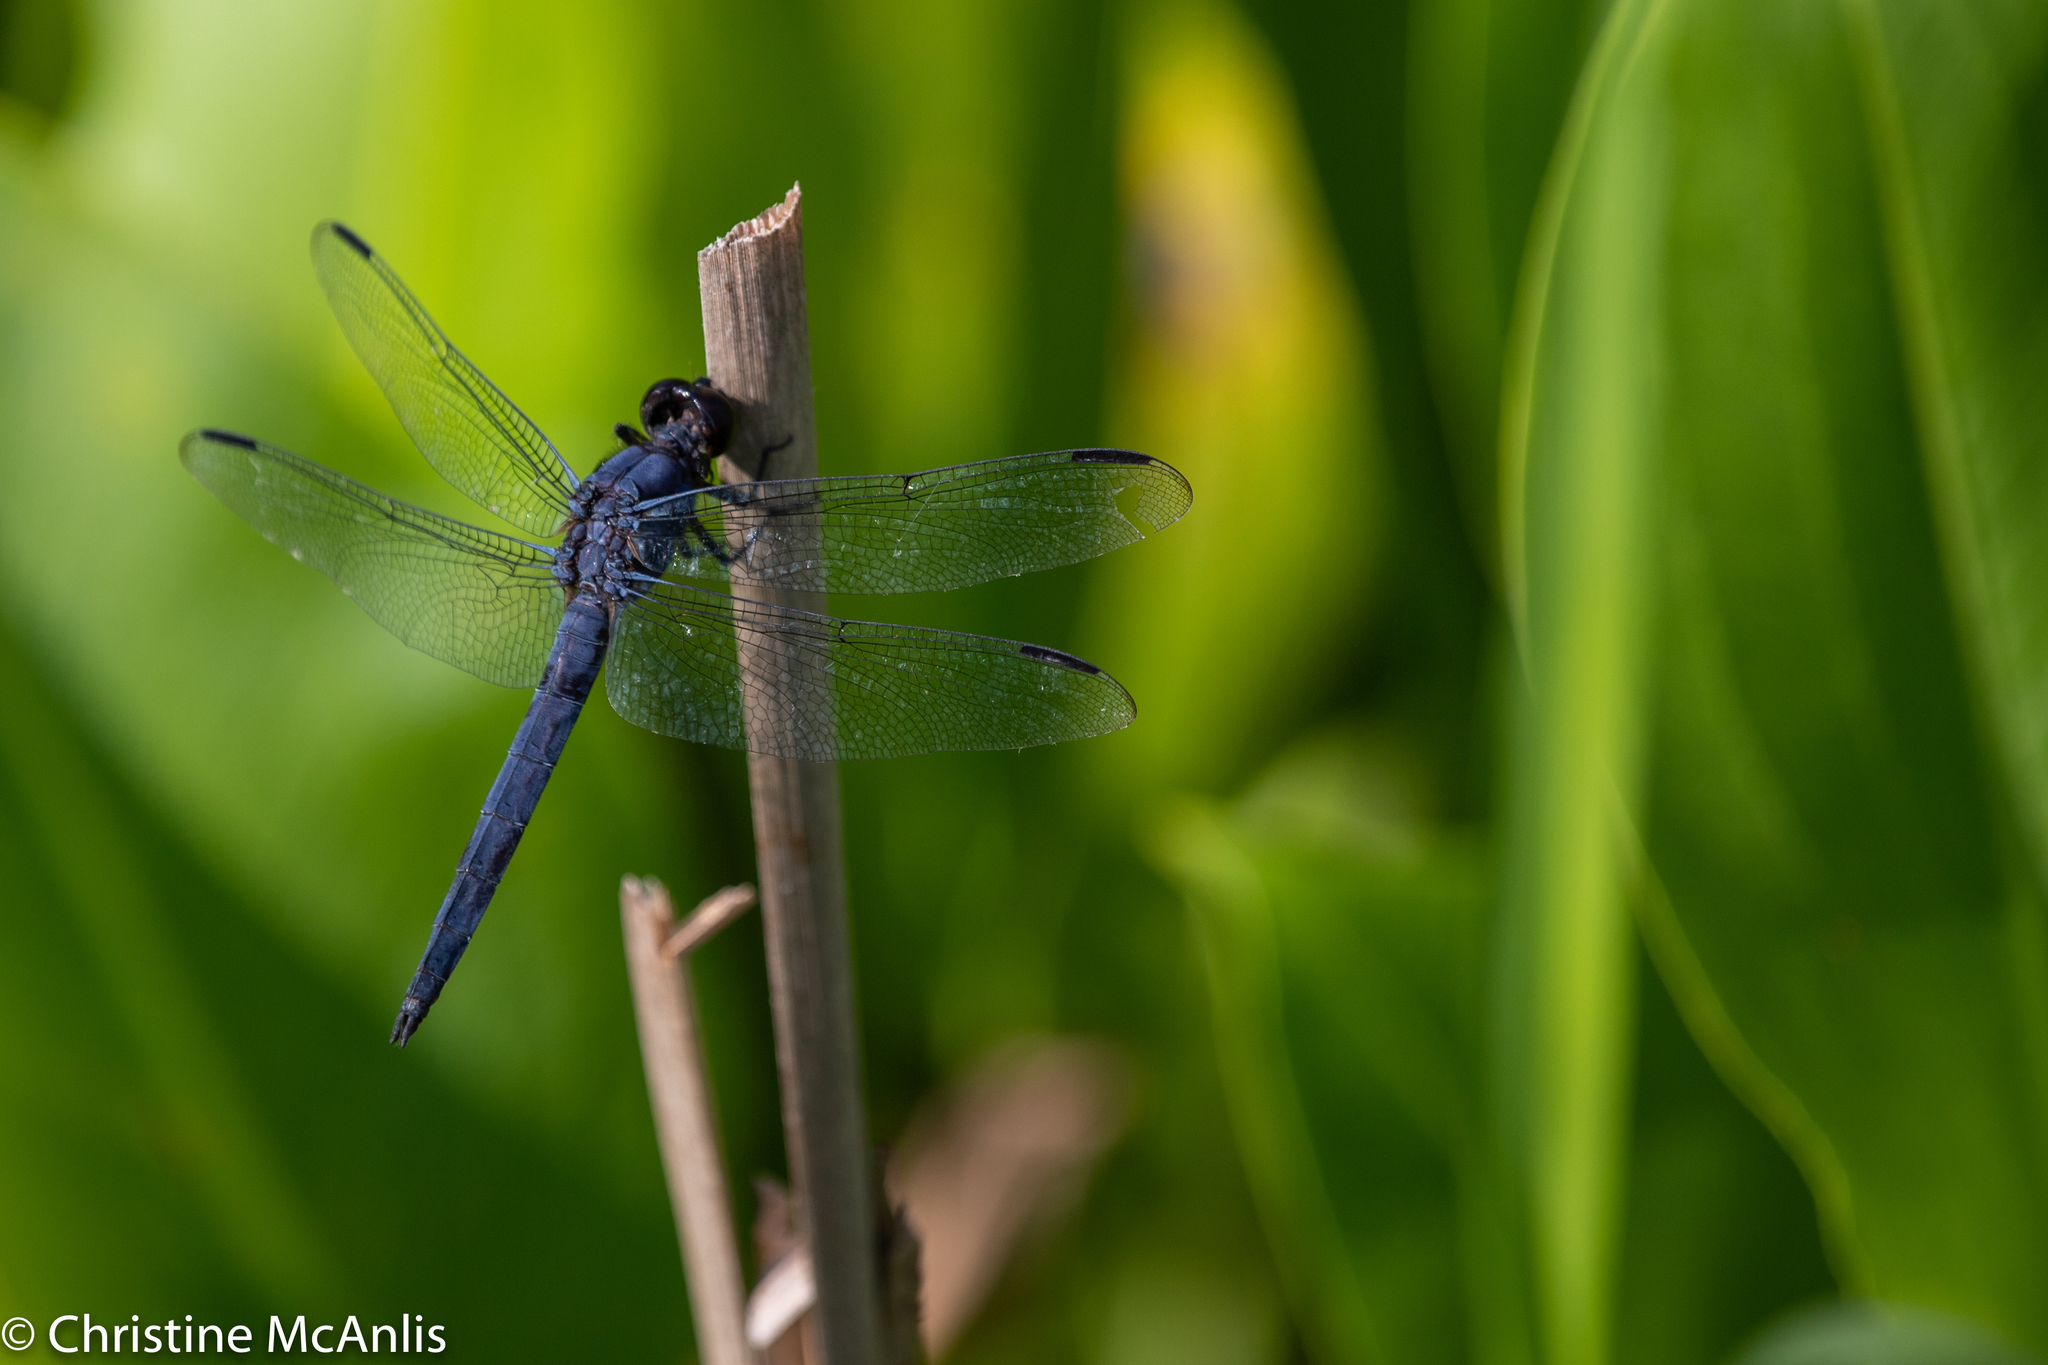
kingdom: Animalia
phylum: Arthropoda
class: Insecta
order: Odonata
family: Libellulidae
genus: Libellula
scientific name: Libellula incesta
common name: Slaty skimmer
